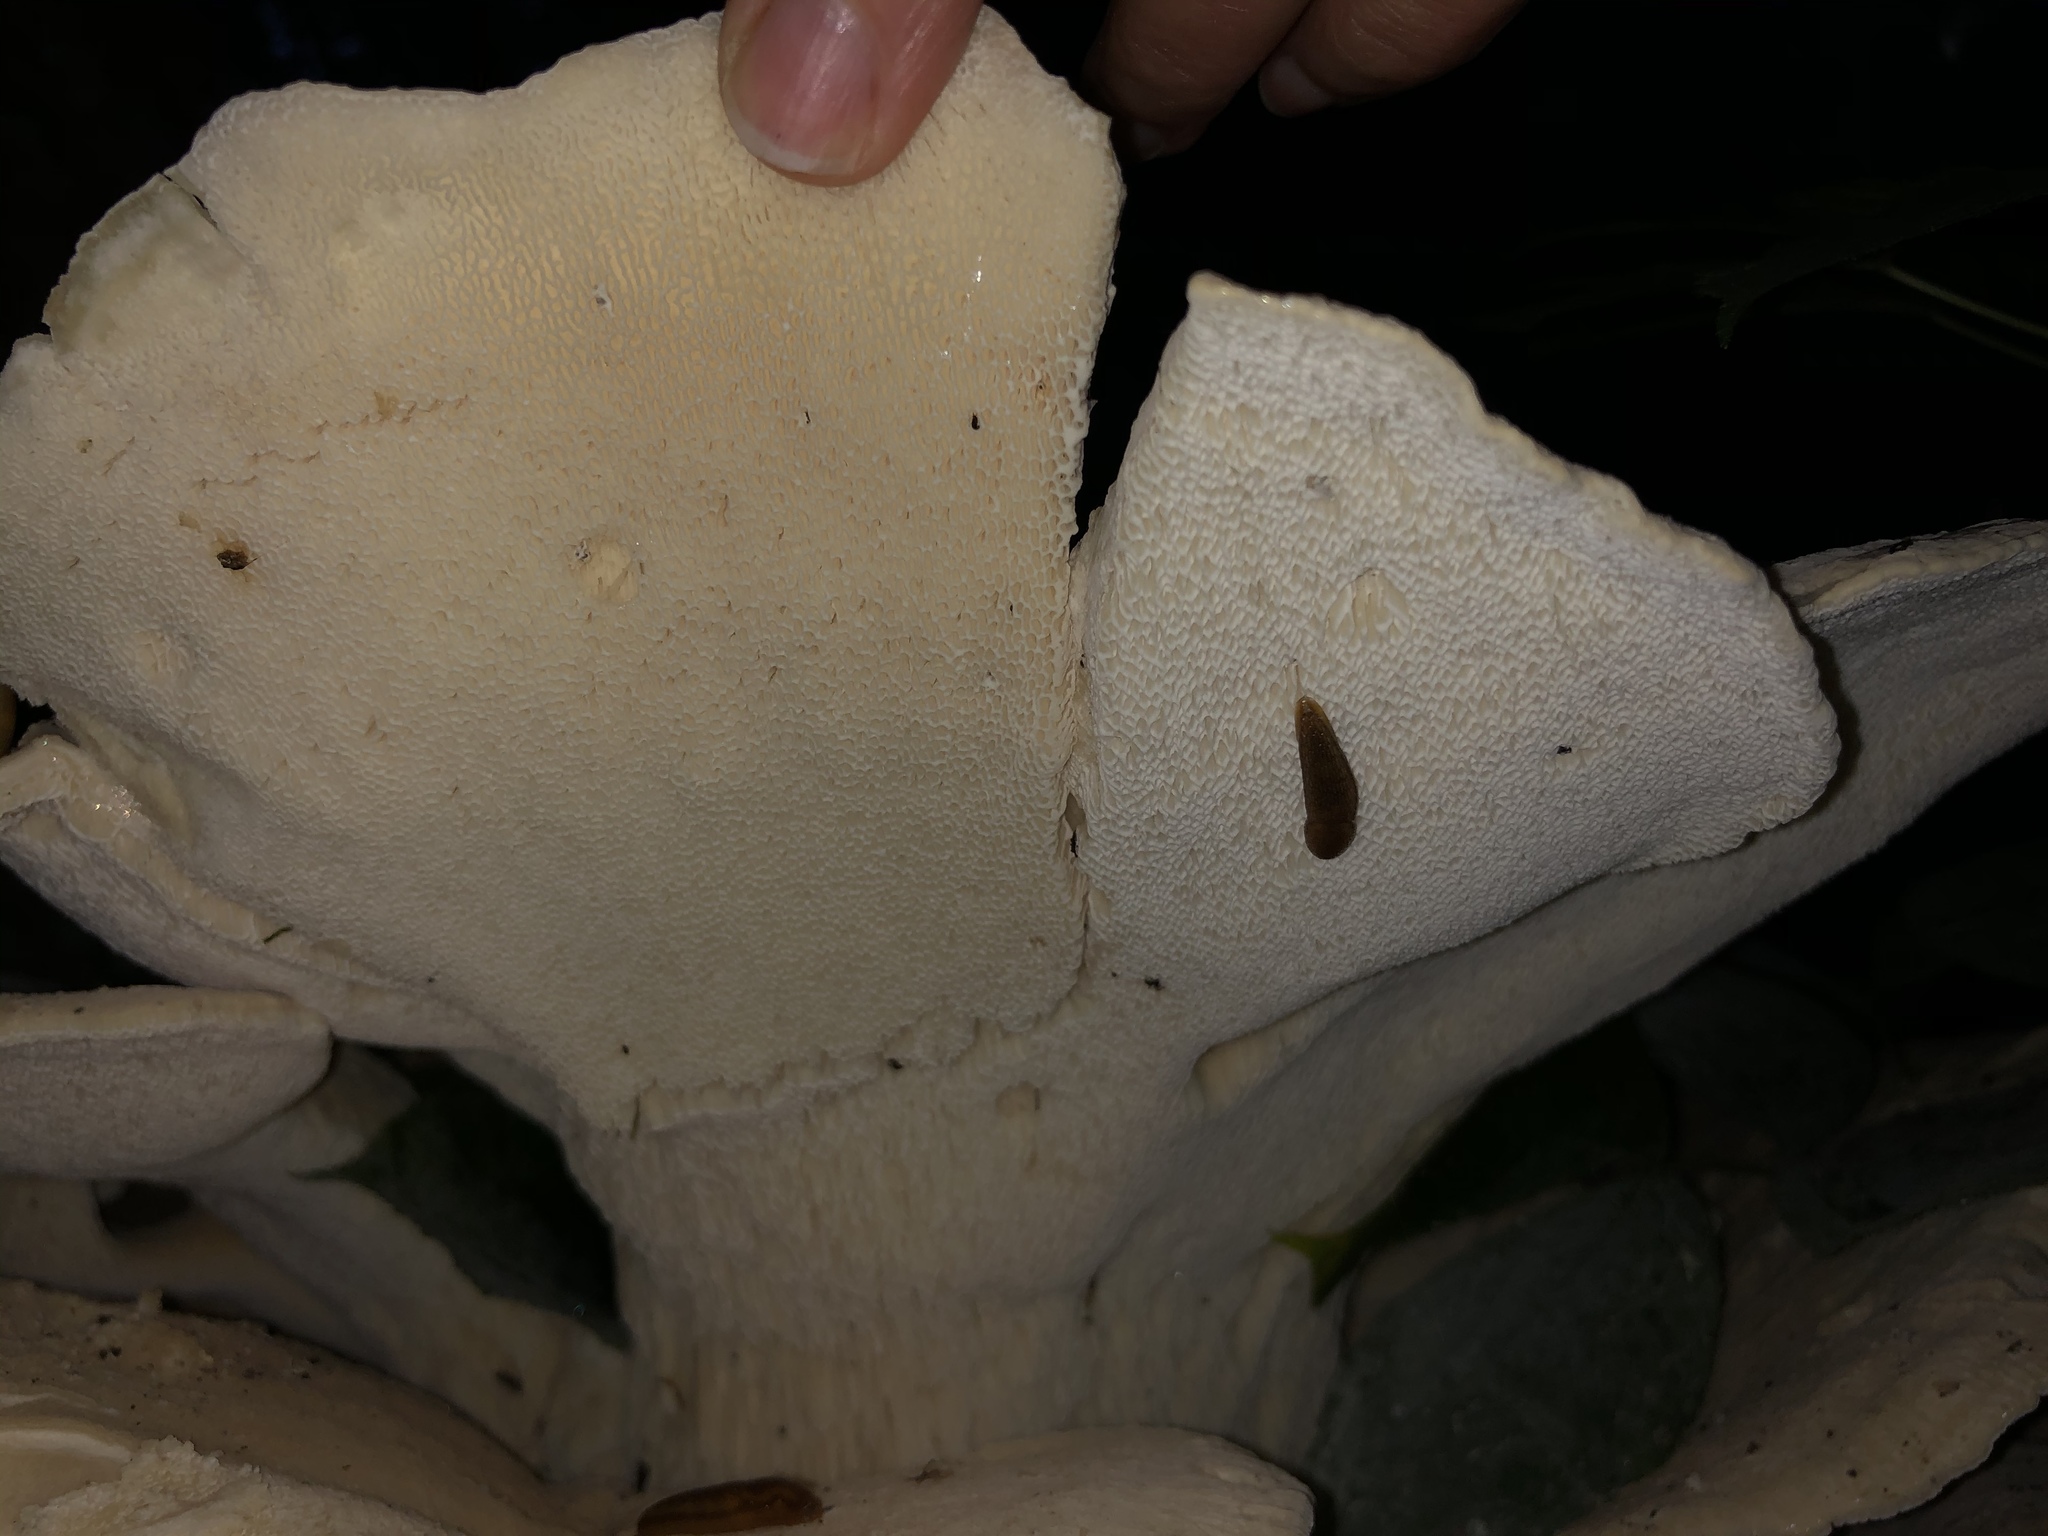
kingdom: Fungi
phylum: Basidiomycota
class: Agaricomycetes
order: Russulales
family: Bondarzewiaceae
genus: Bondarzewia
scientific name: Bondarzewia berkeleyi
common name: Berkeley's polypore
